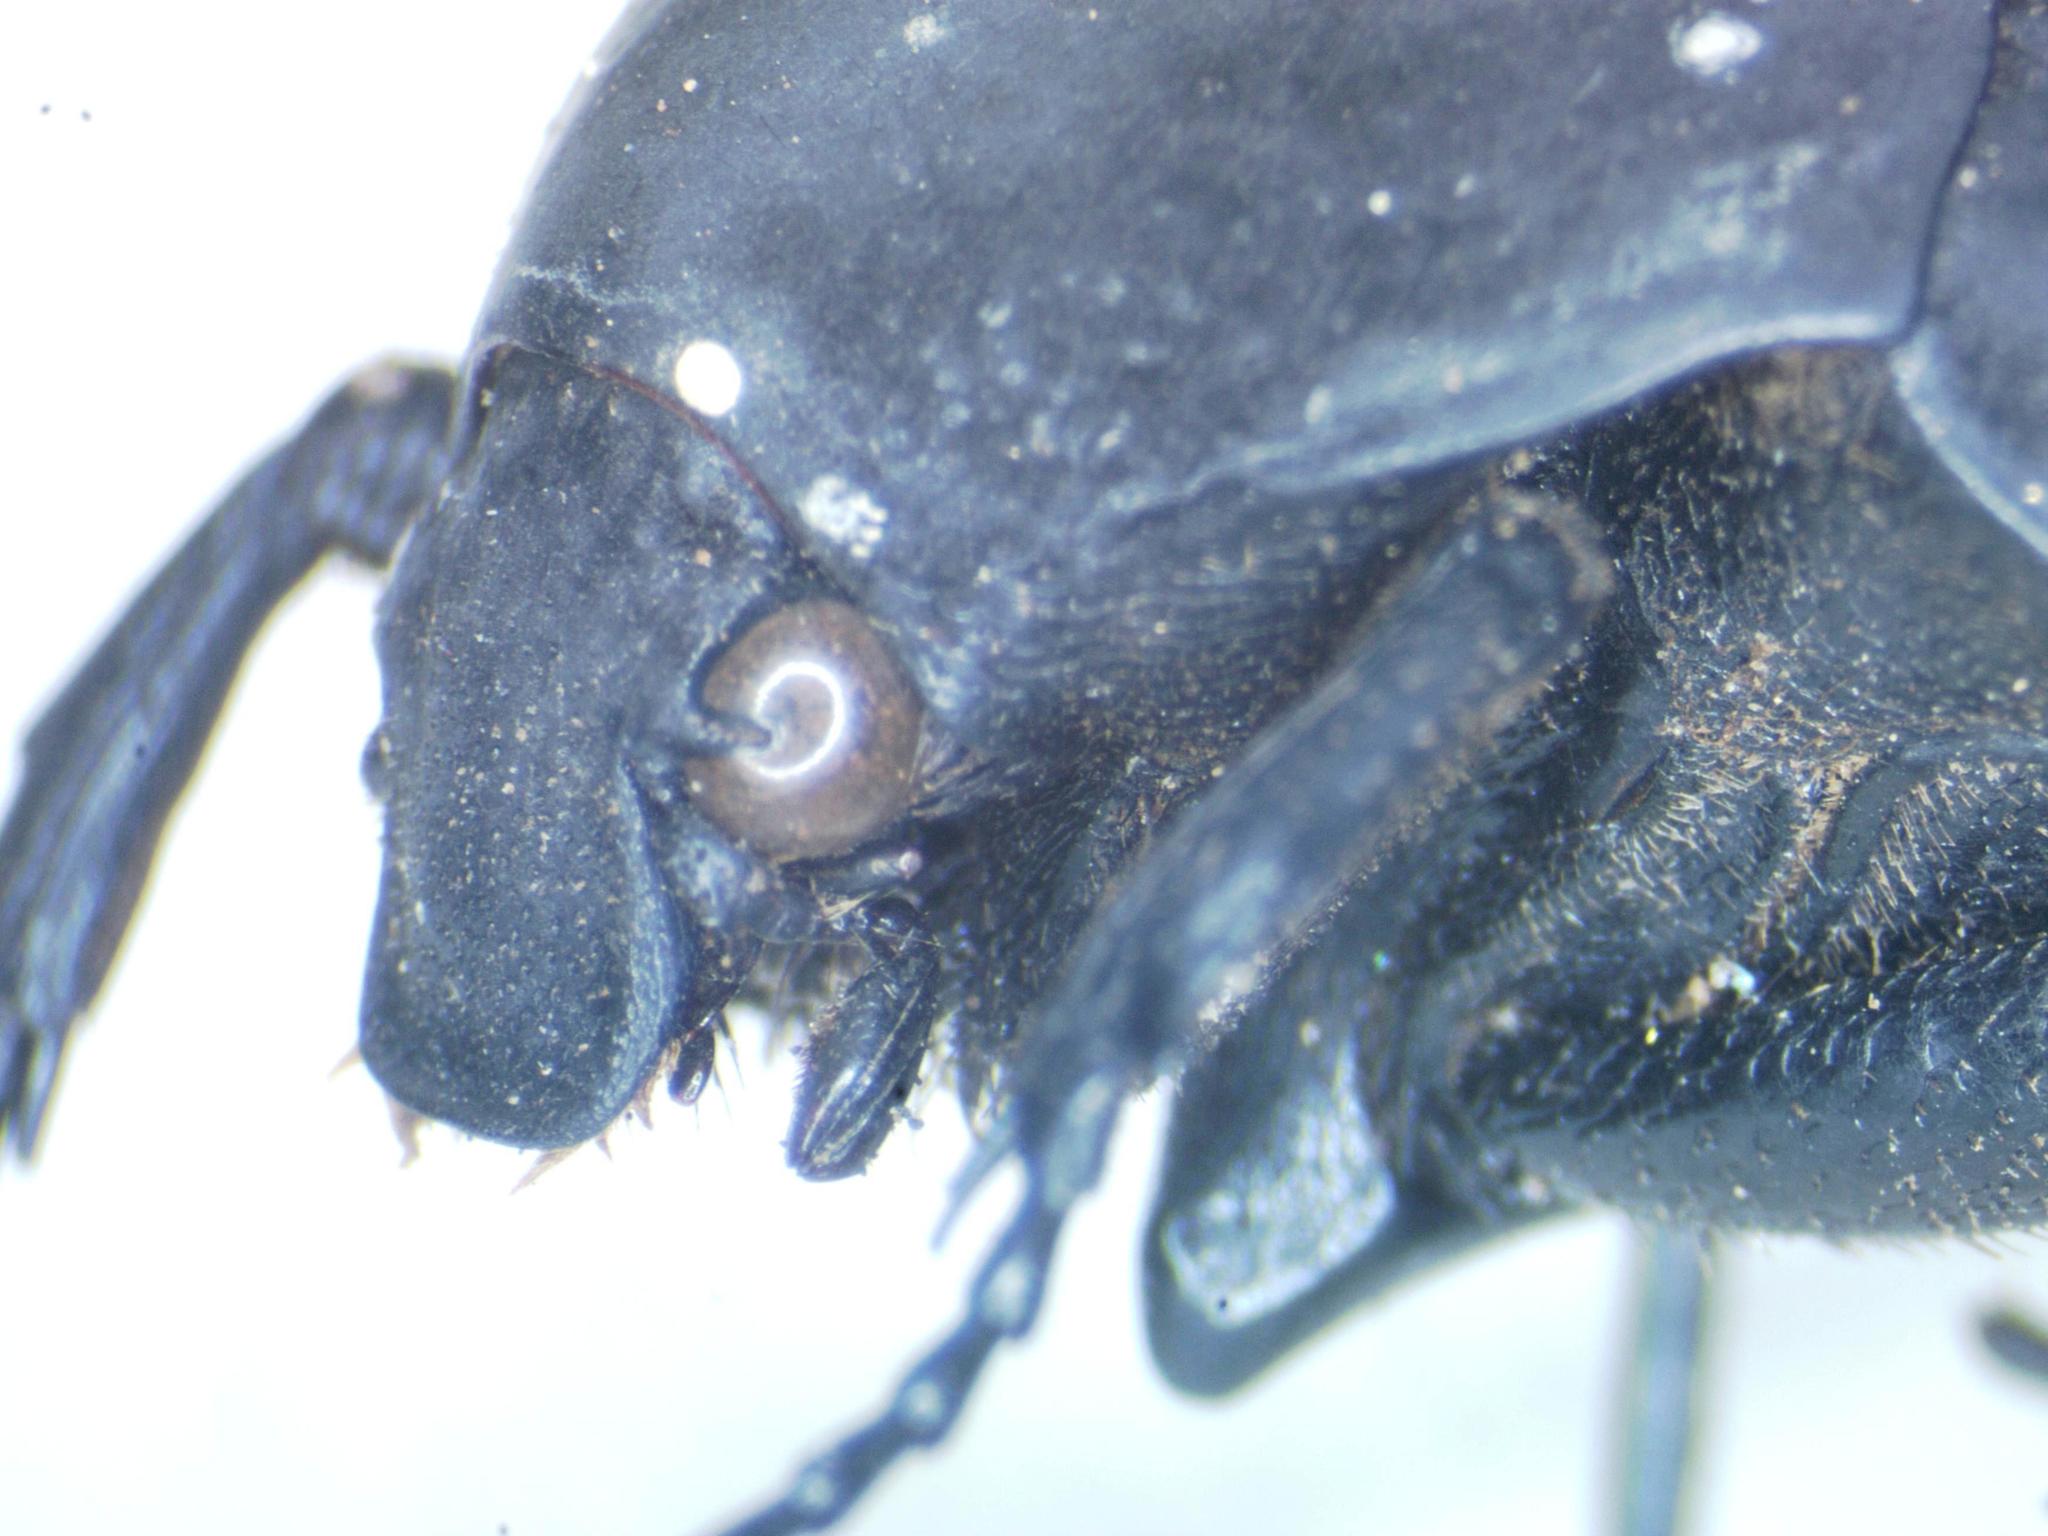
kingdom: Animalia
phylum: Arthropoda
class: Insecta
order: Coleoptera
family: Scarabaeidae
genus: Gymnetis
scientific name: Gymnetis ramulosa
